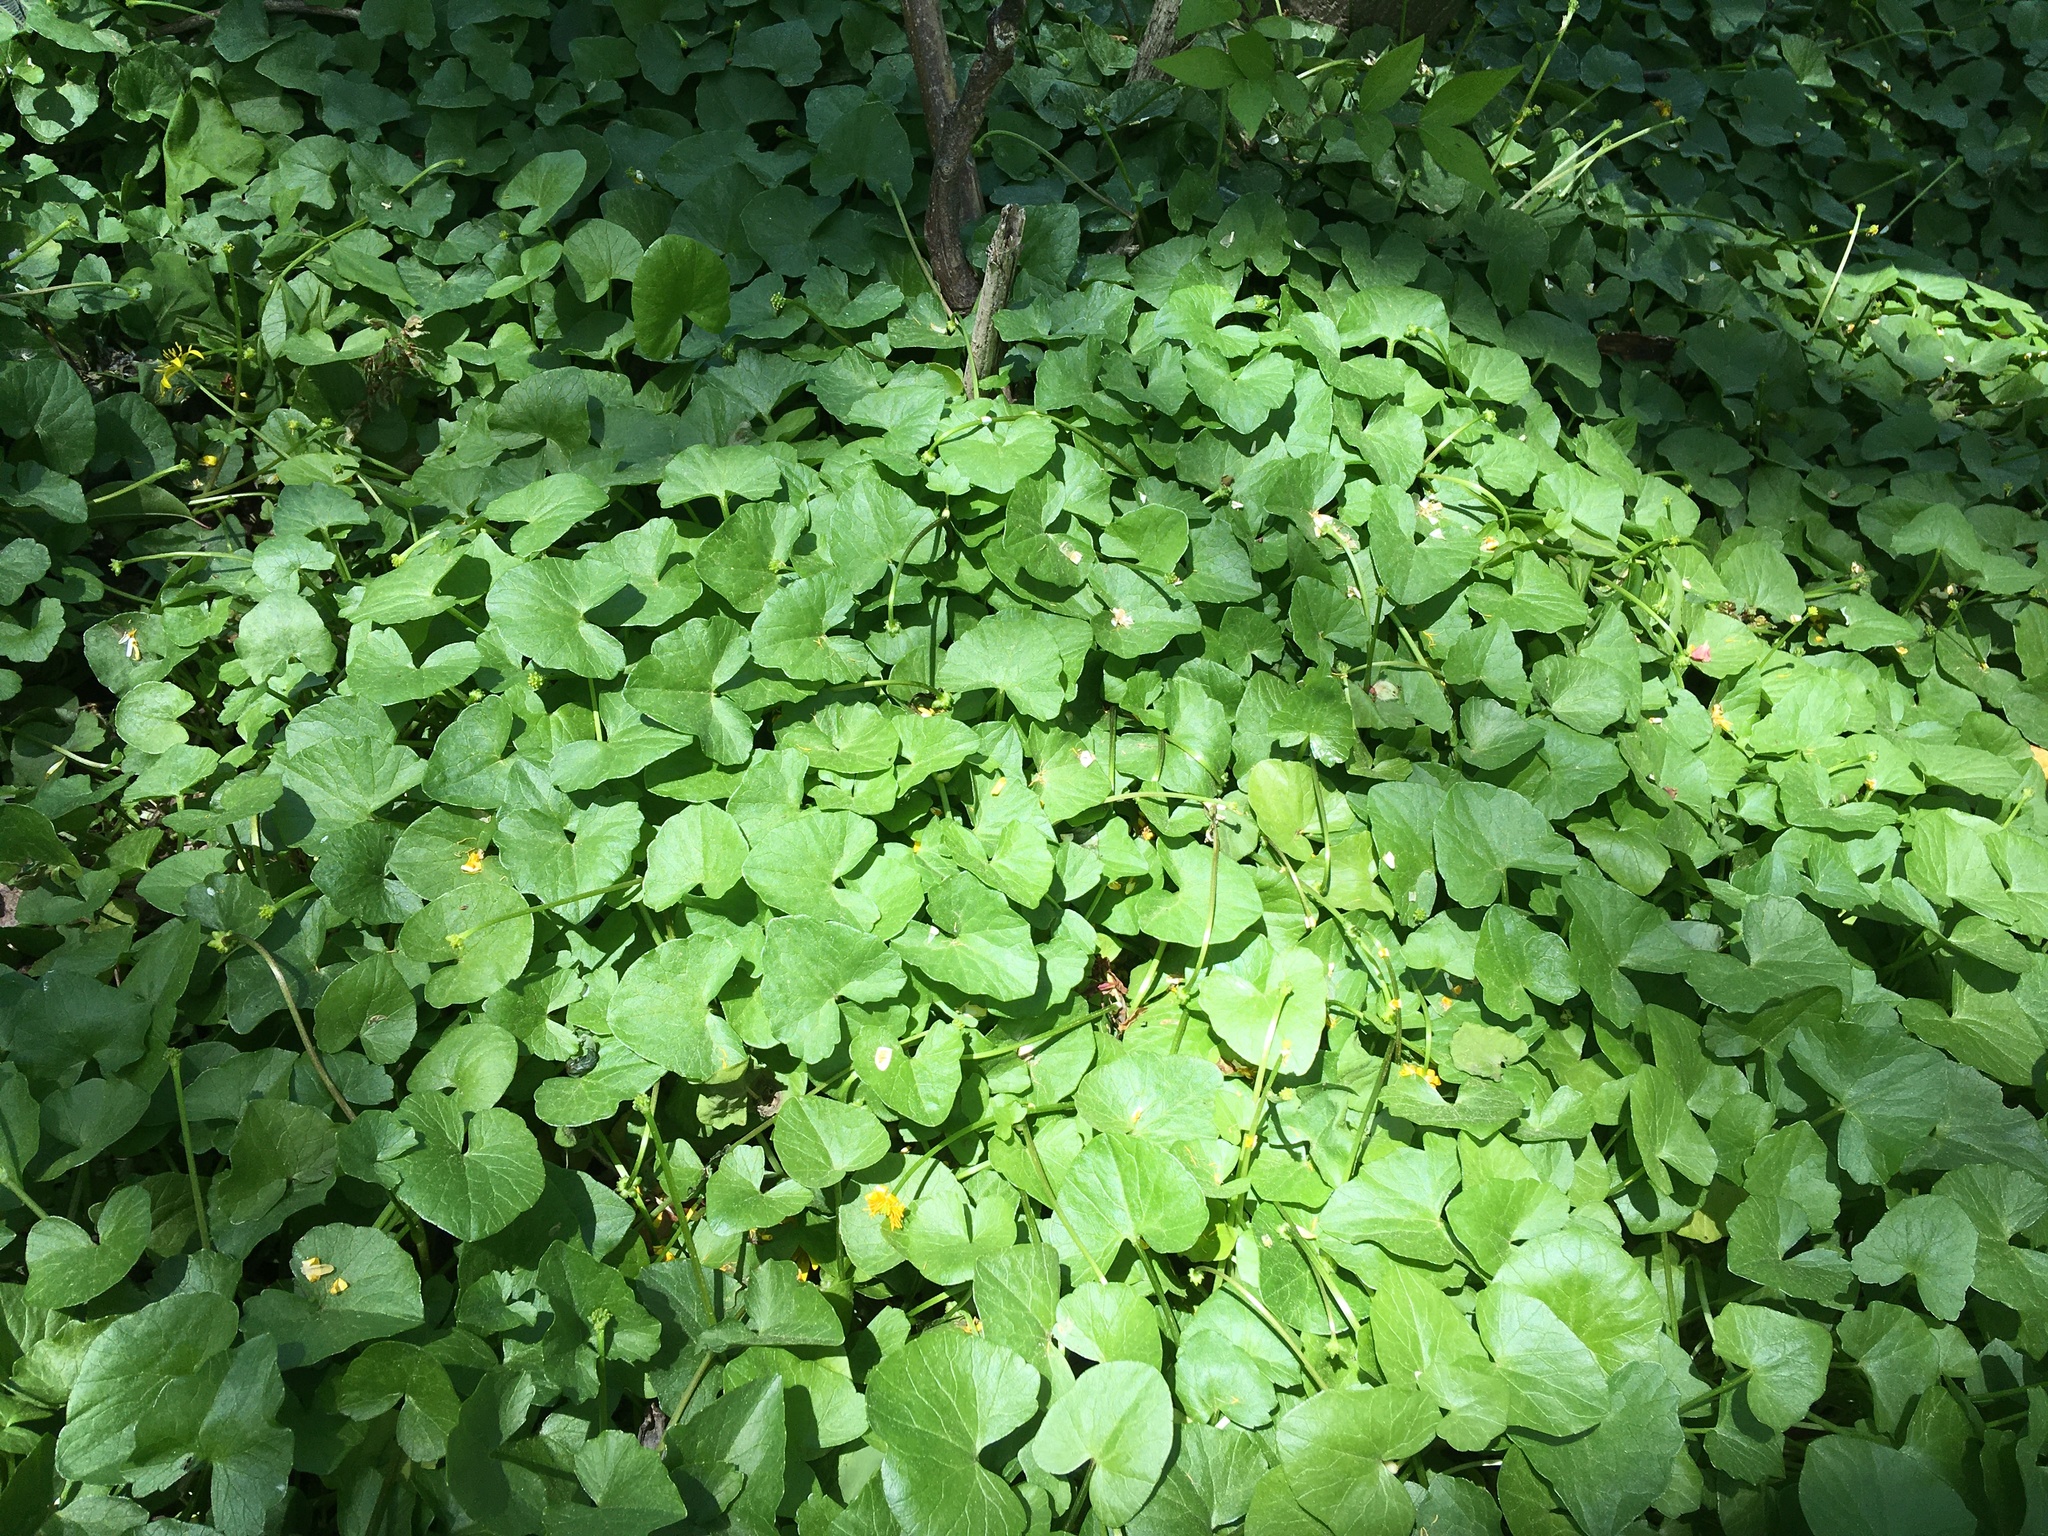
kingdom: Plantae
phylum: Tracheophyta
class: Magnoliopsida
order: Ranunculales
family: Ranunculaceae
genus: Ficaria
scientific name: Ficaria verna
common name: Lesser celandine
